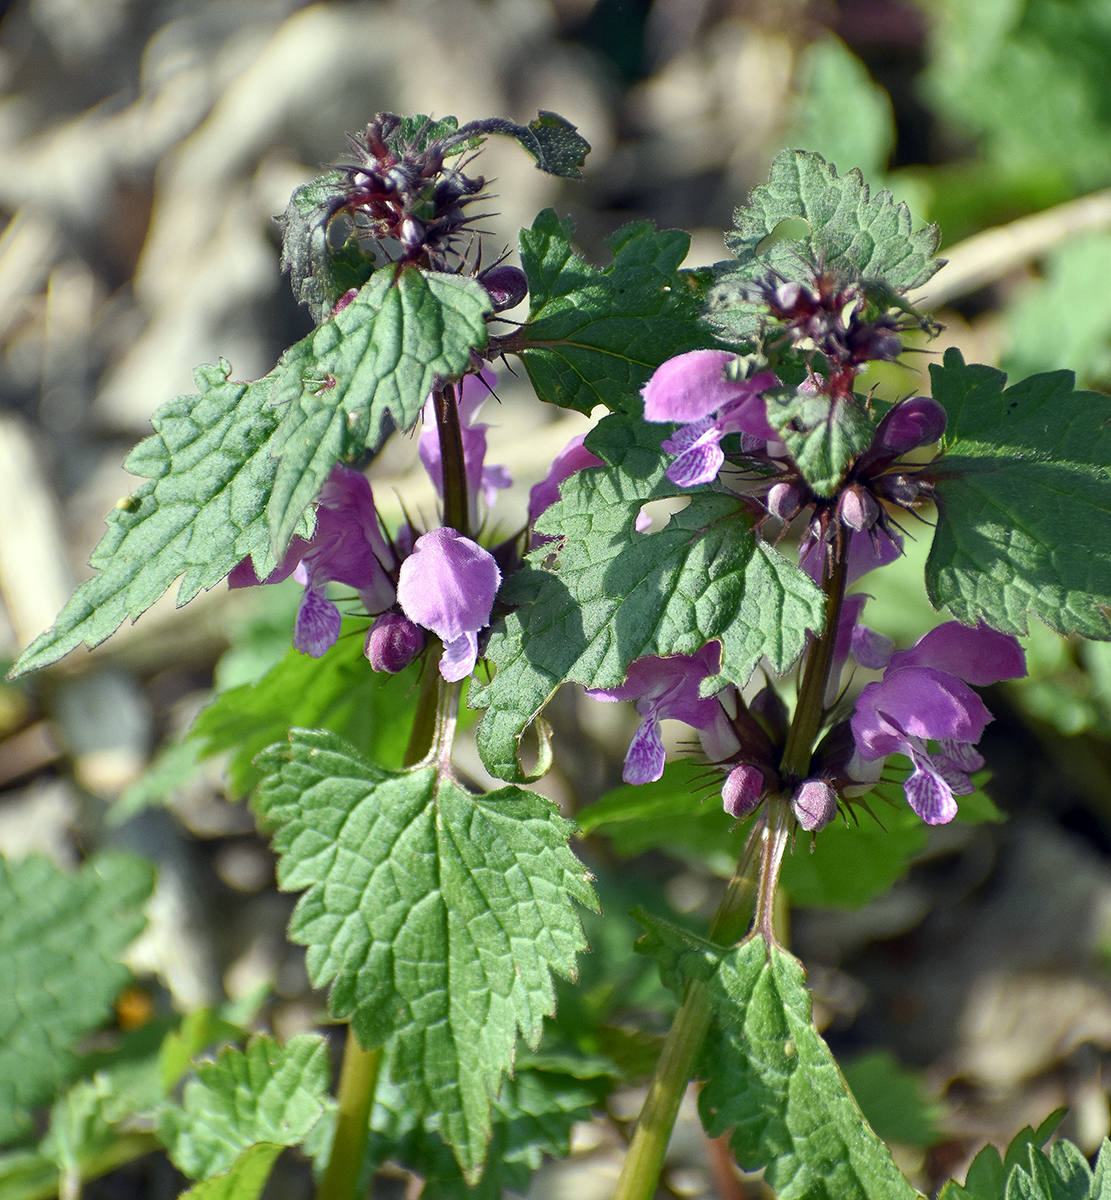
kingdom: Plantae
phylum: Tracheophyta
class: Magnoliopsida
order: Lamiales
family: Lamiaceae
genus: Lamium
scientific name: Lamium maculatum
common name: Spotted dead-nettle
